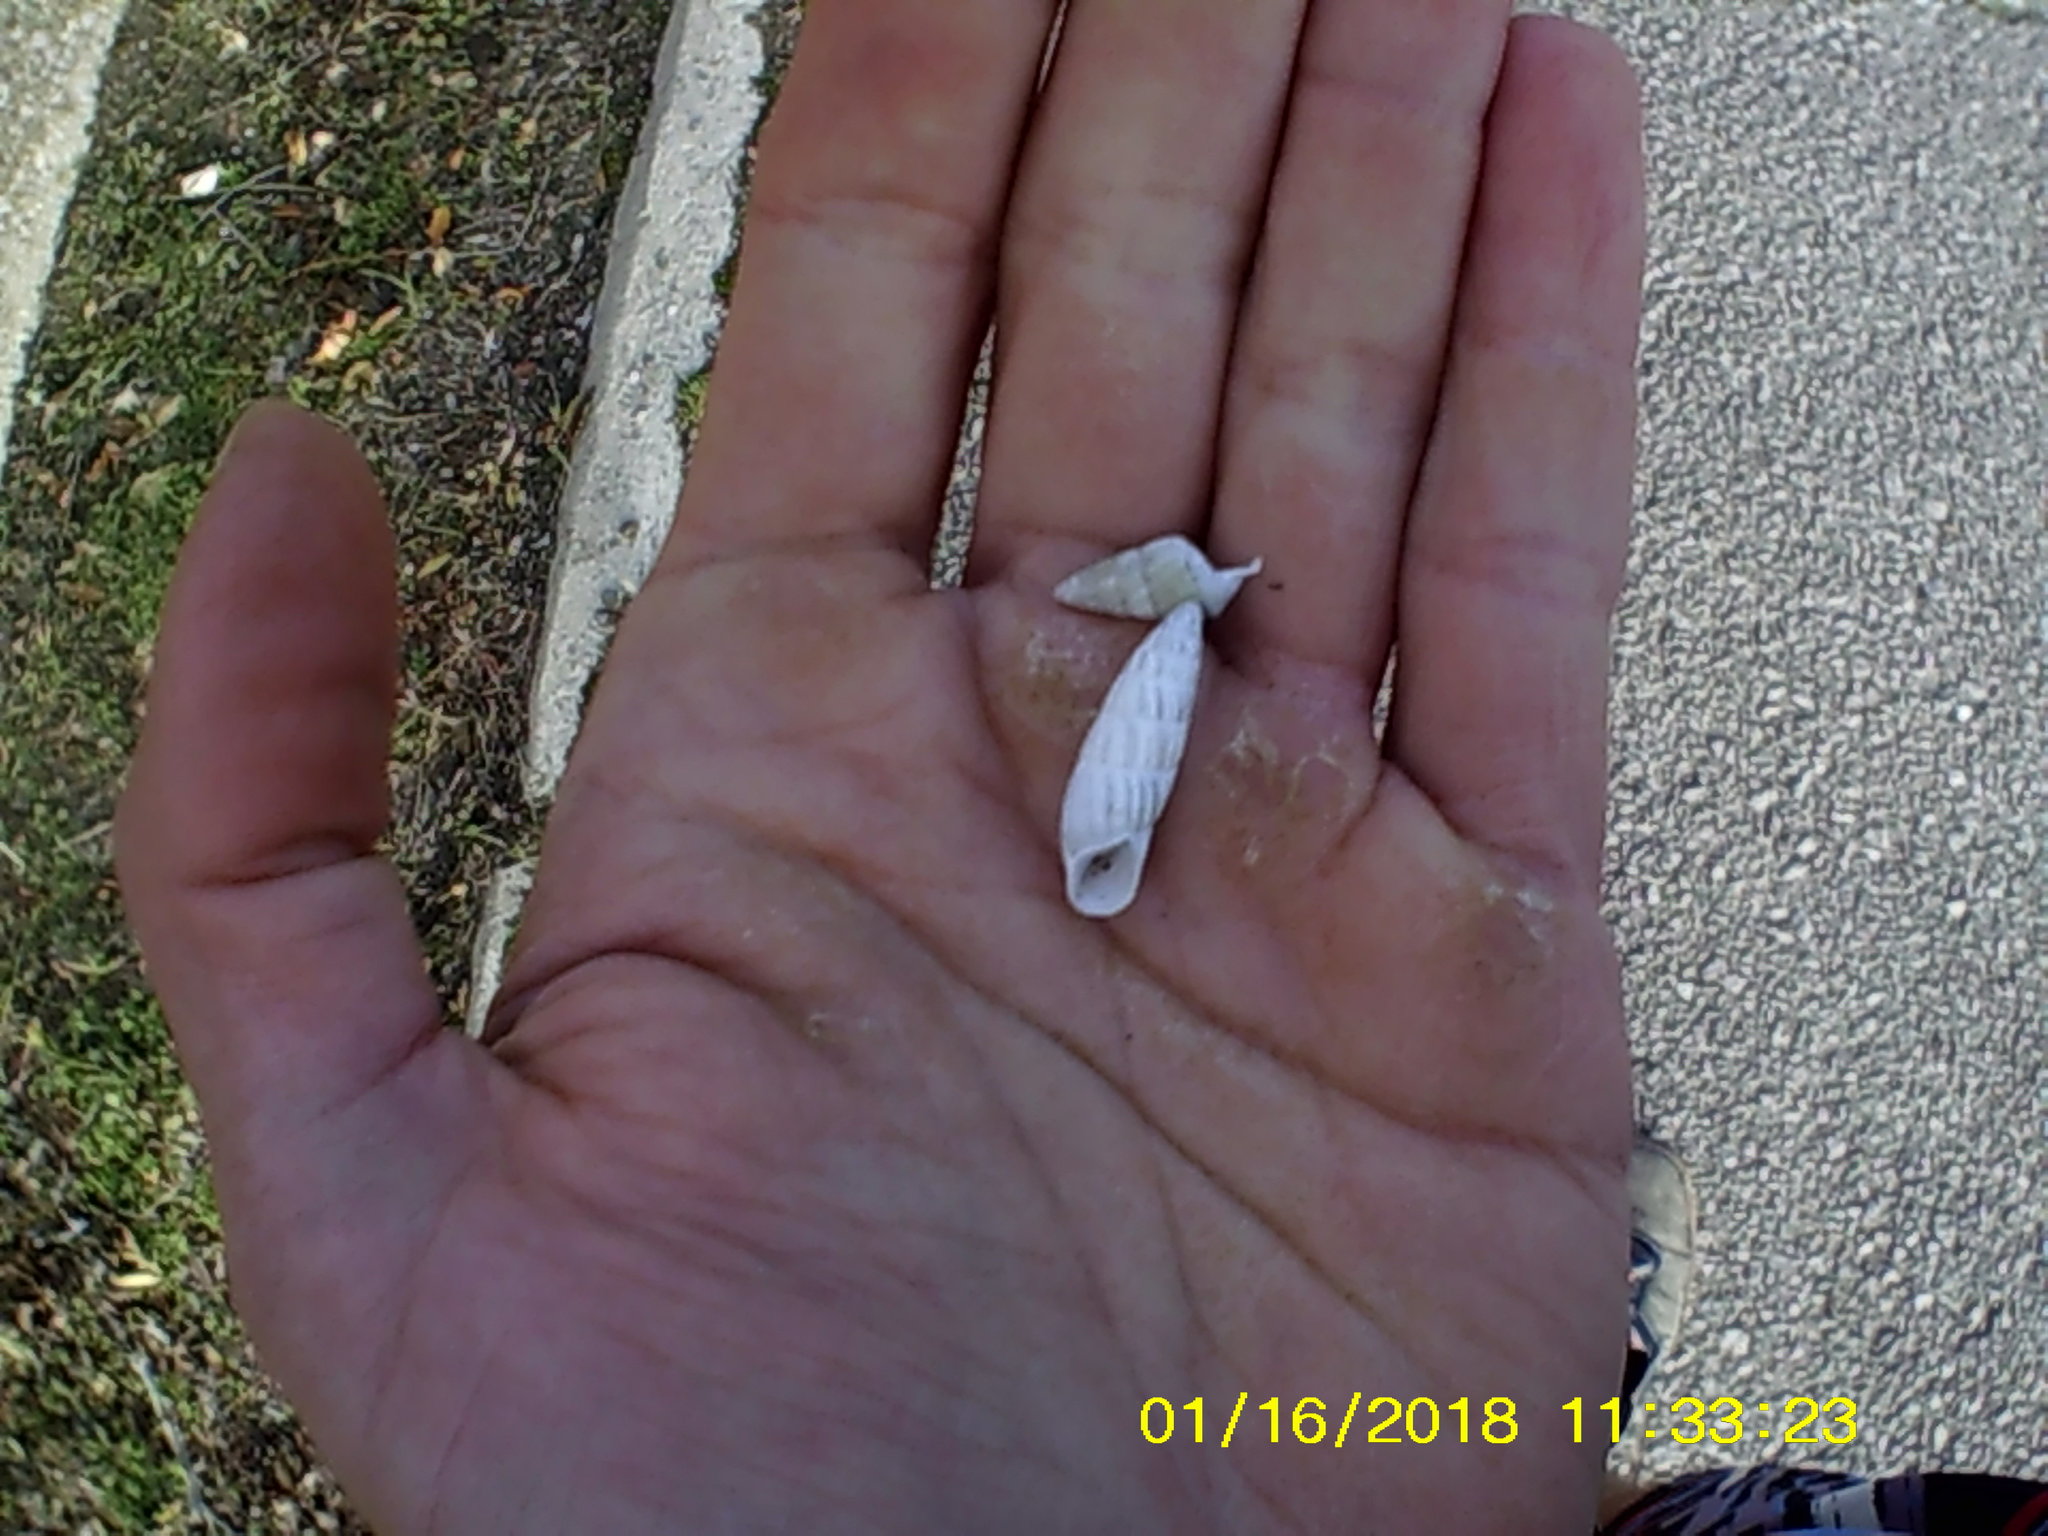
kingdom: Animalia
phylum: Mollusca
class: Gastropoda
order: Stylommatophora
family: Enidae
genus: Brephulopsis
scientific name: Brephulopsis cylindrica
